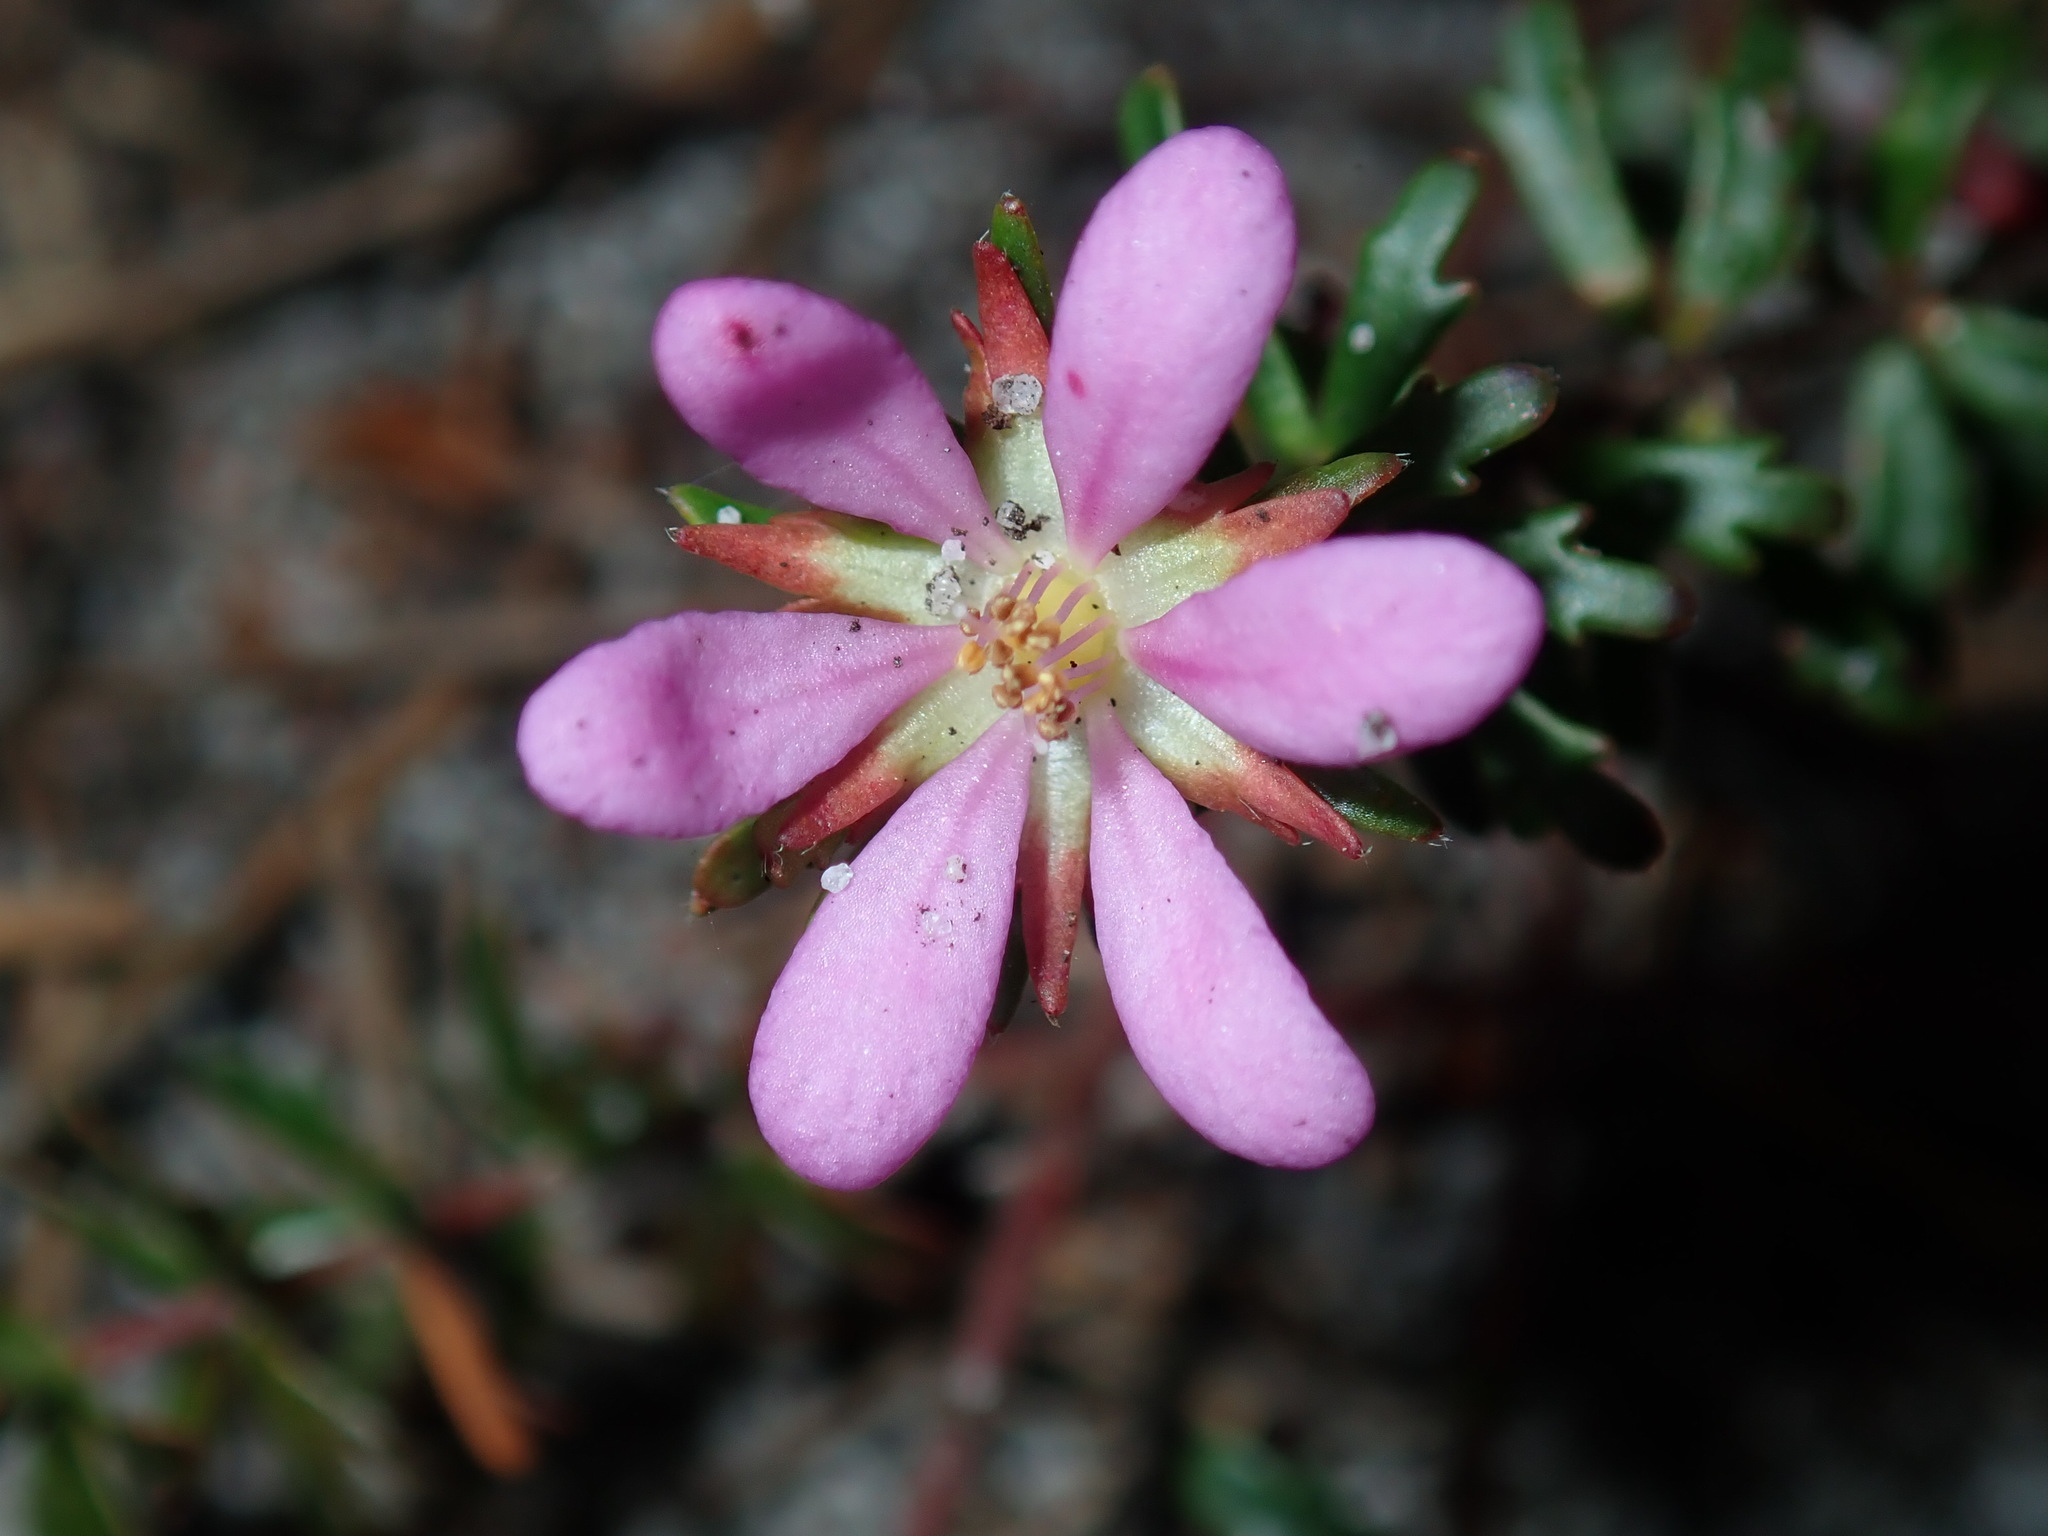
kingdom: Plantae
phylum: Tracheophyta
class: Magnoliopsida
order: Oxalidales
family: Cunoniaceae
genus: Bauera
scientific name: Bauera capitata
